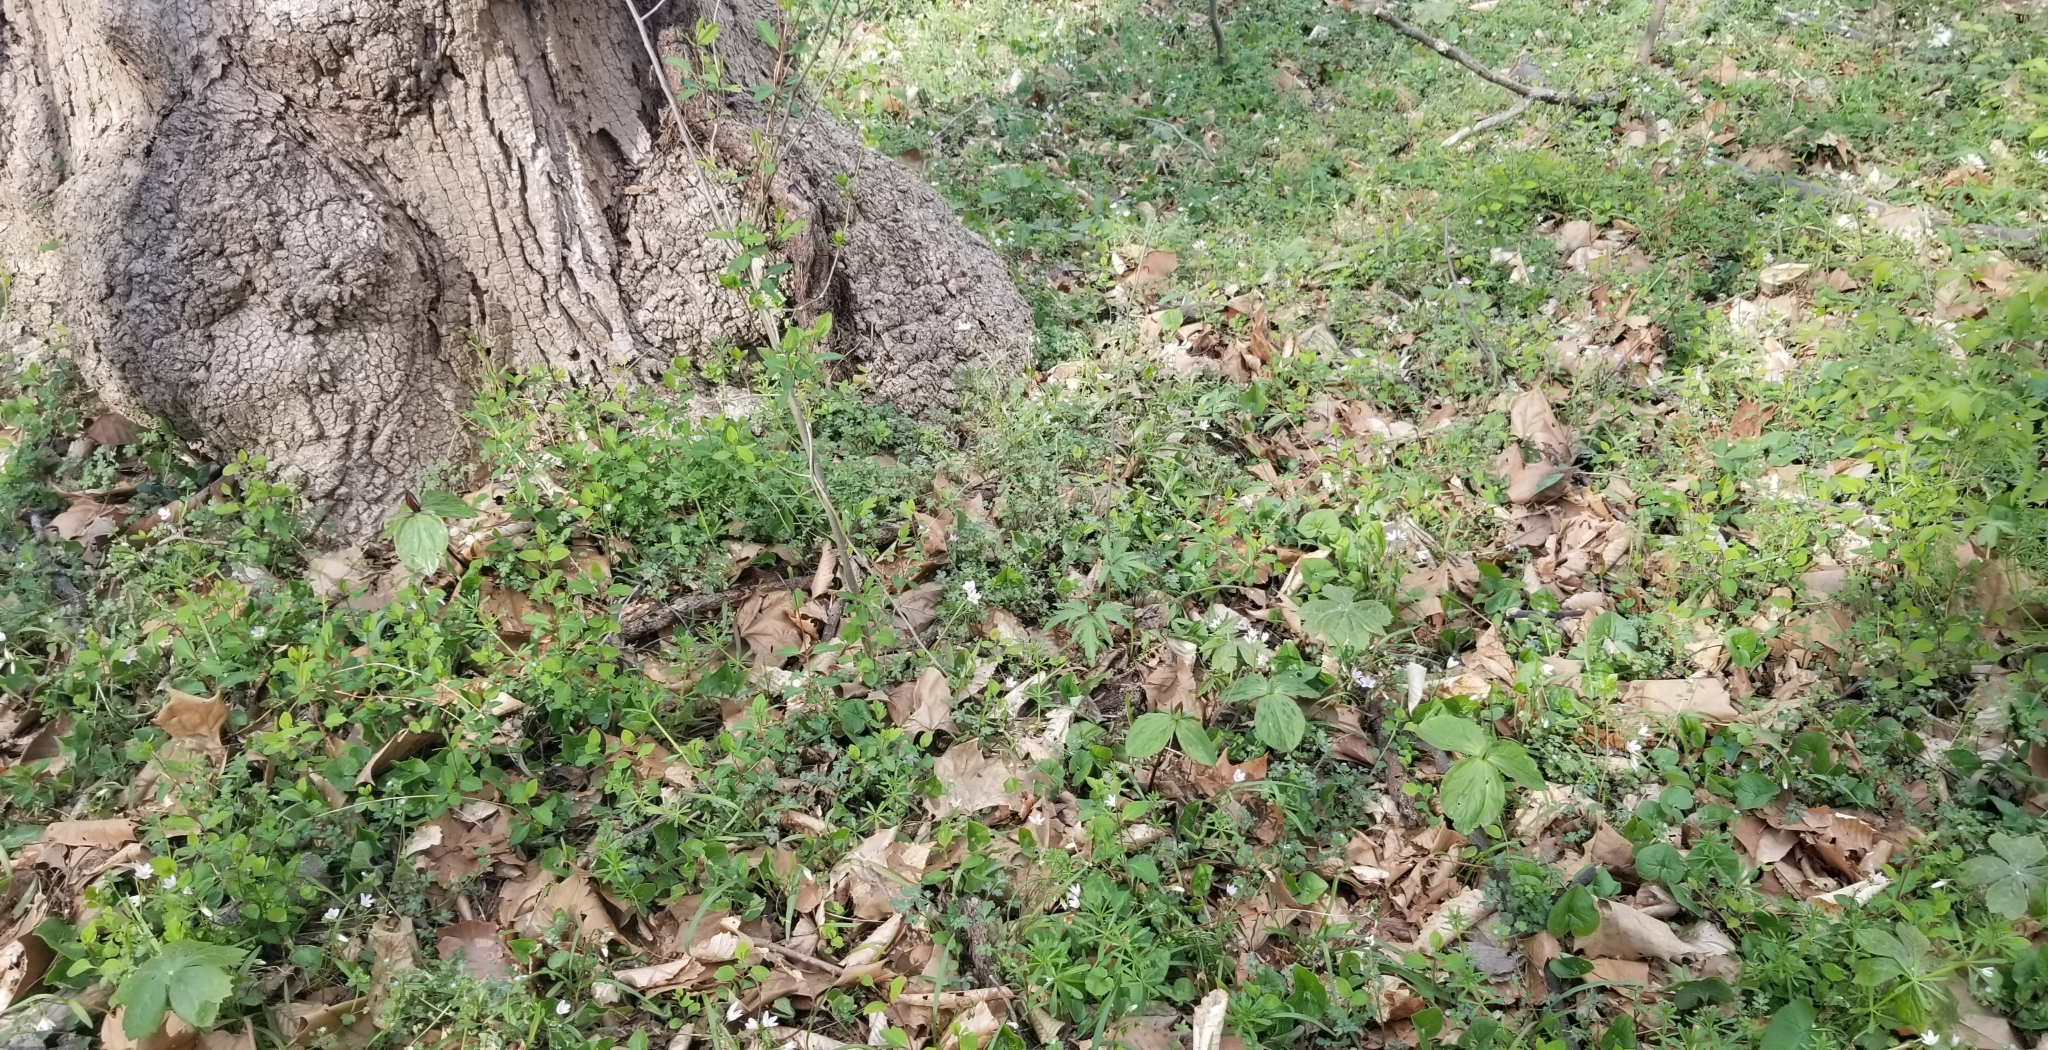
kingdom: Plantae
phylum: Tracheophyta
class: Liliopsida
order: Liliales
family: Melanthiaceae
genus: Trillium
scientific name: Trillium sessile
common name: Sessile trillium
